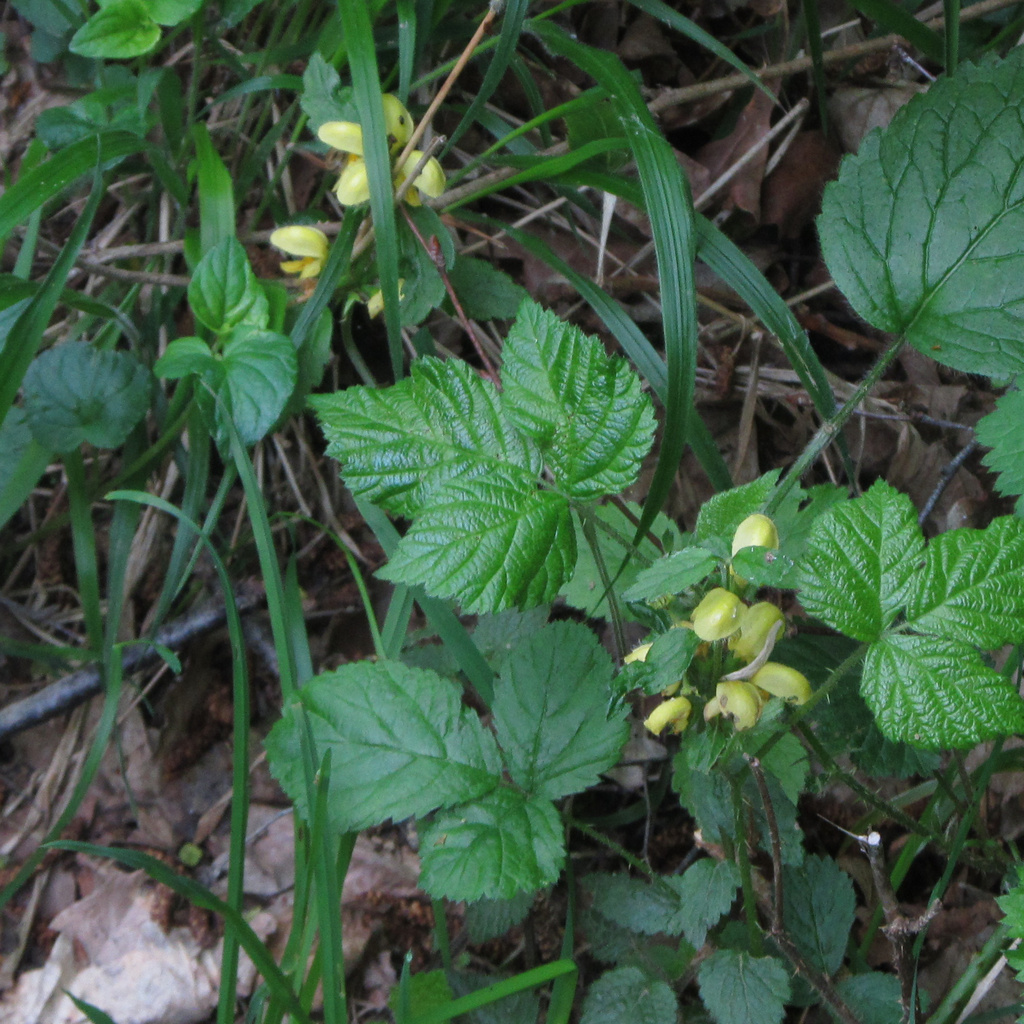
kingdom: Plantae
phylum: Tracheophyta
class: Magnoliopsida
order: Lamiales
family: Lamiaceae
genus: Lamium
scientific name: Lamium galeobdolon
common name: Yellow archangel
